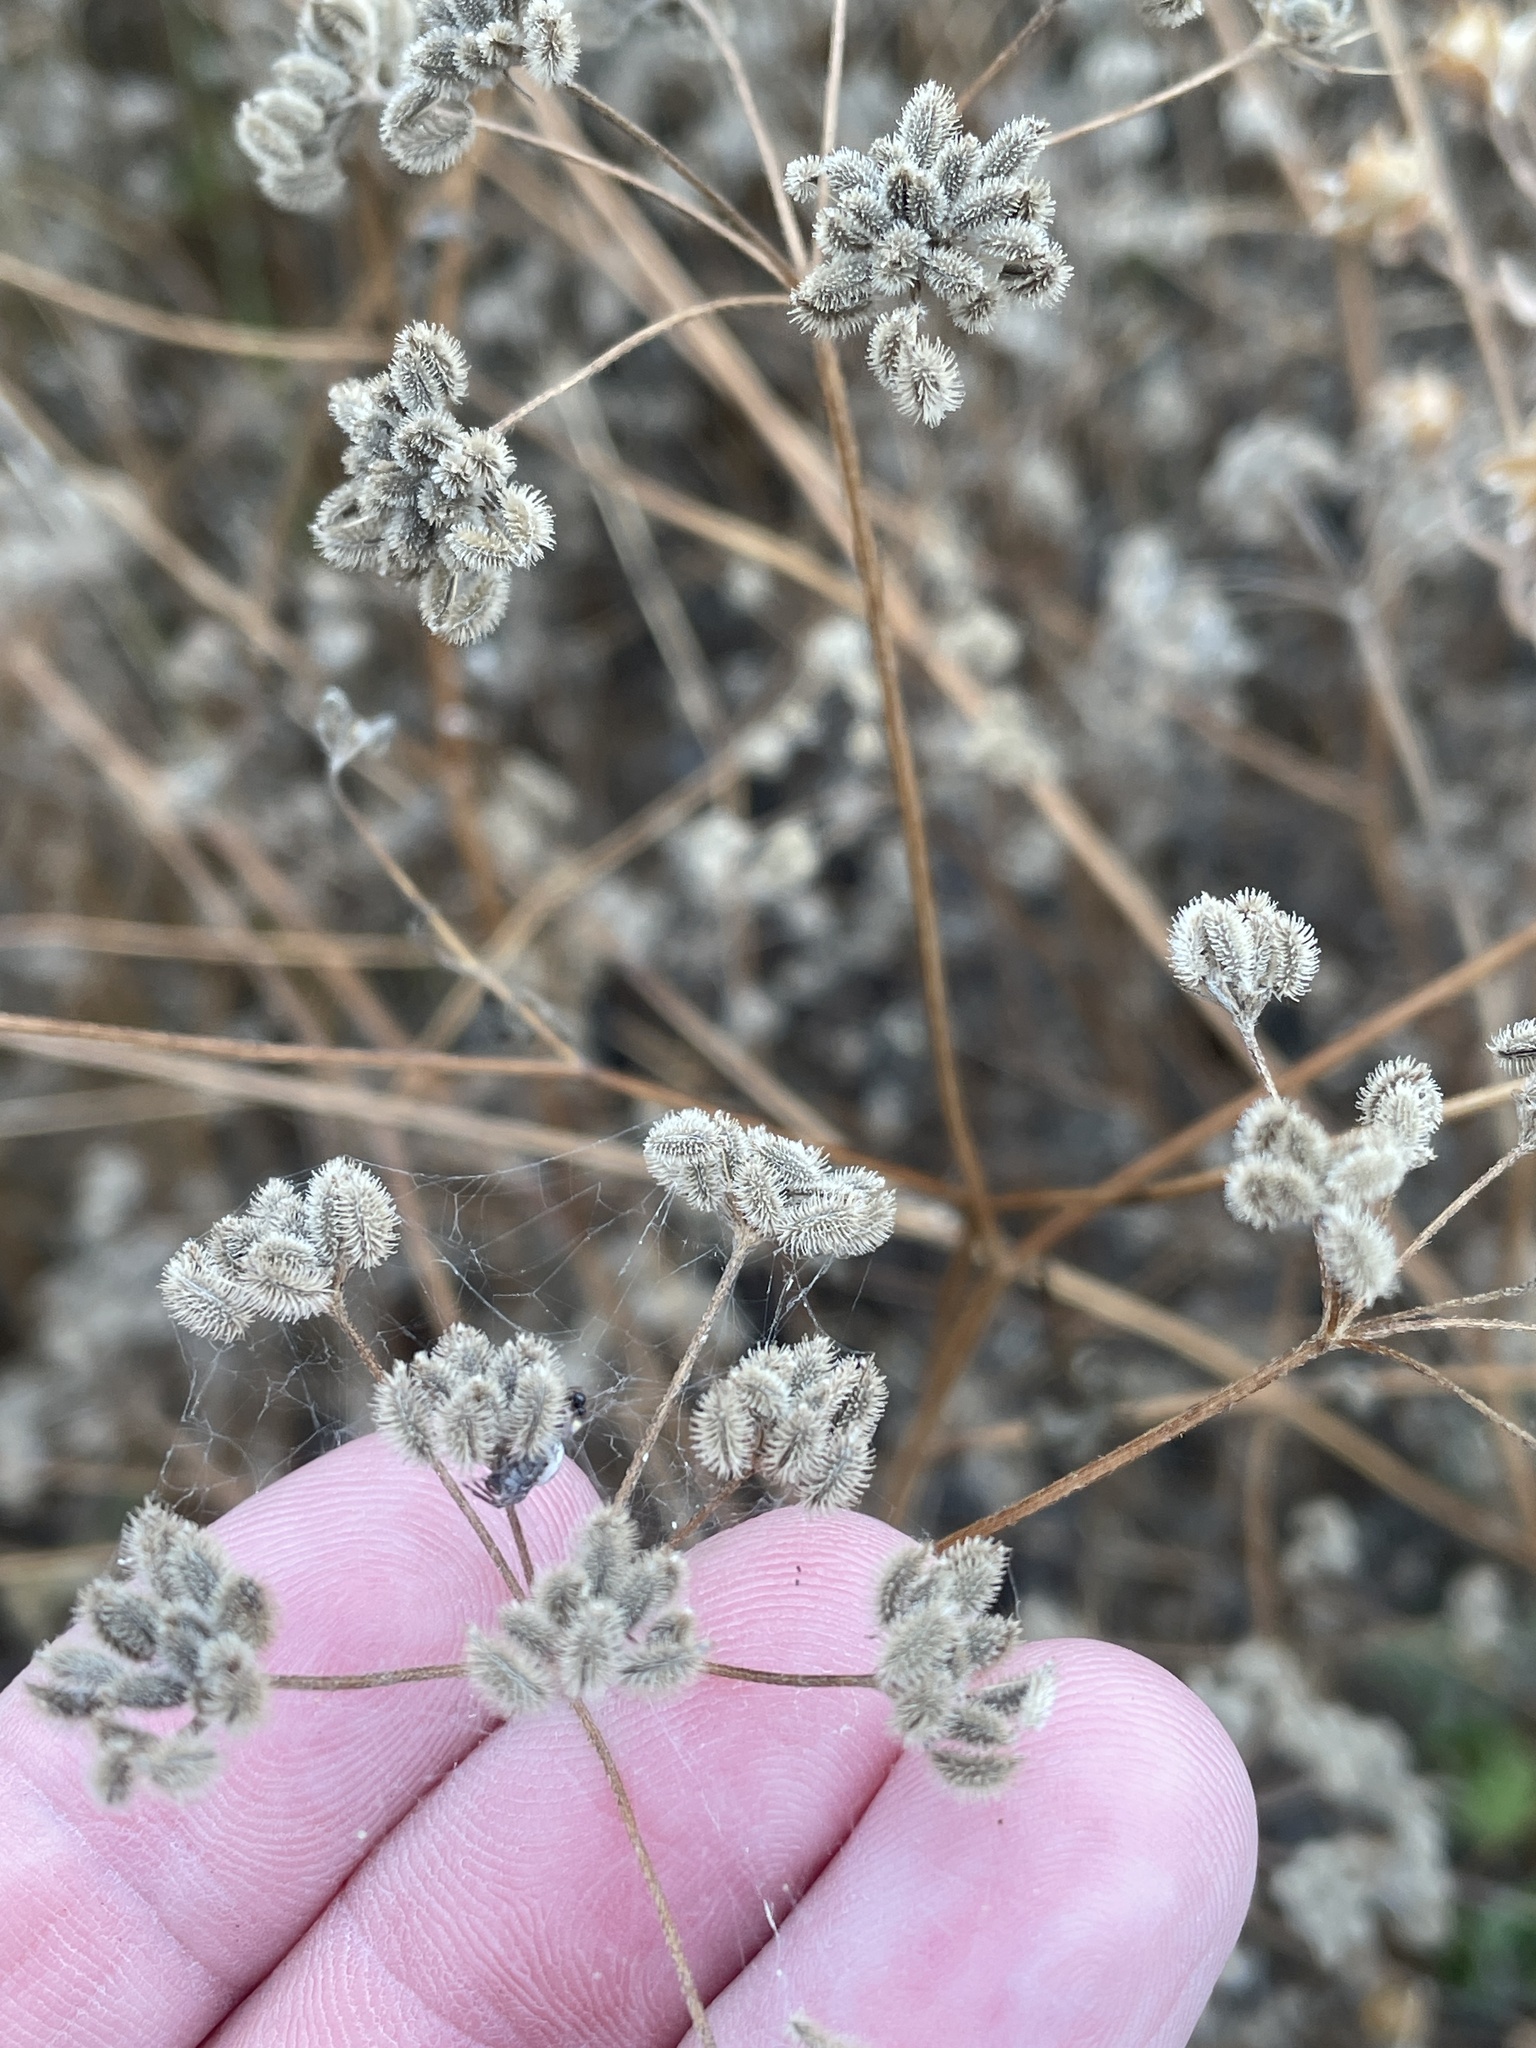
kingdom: Plantae
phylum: Tracheophyta
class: Magnoliopsida
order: Apiales
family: Apiaceae
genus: Torilis
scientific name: Torilis arvensis
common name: Spreading hedge-parsley
